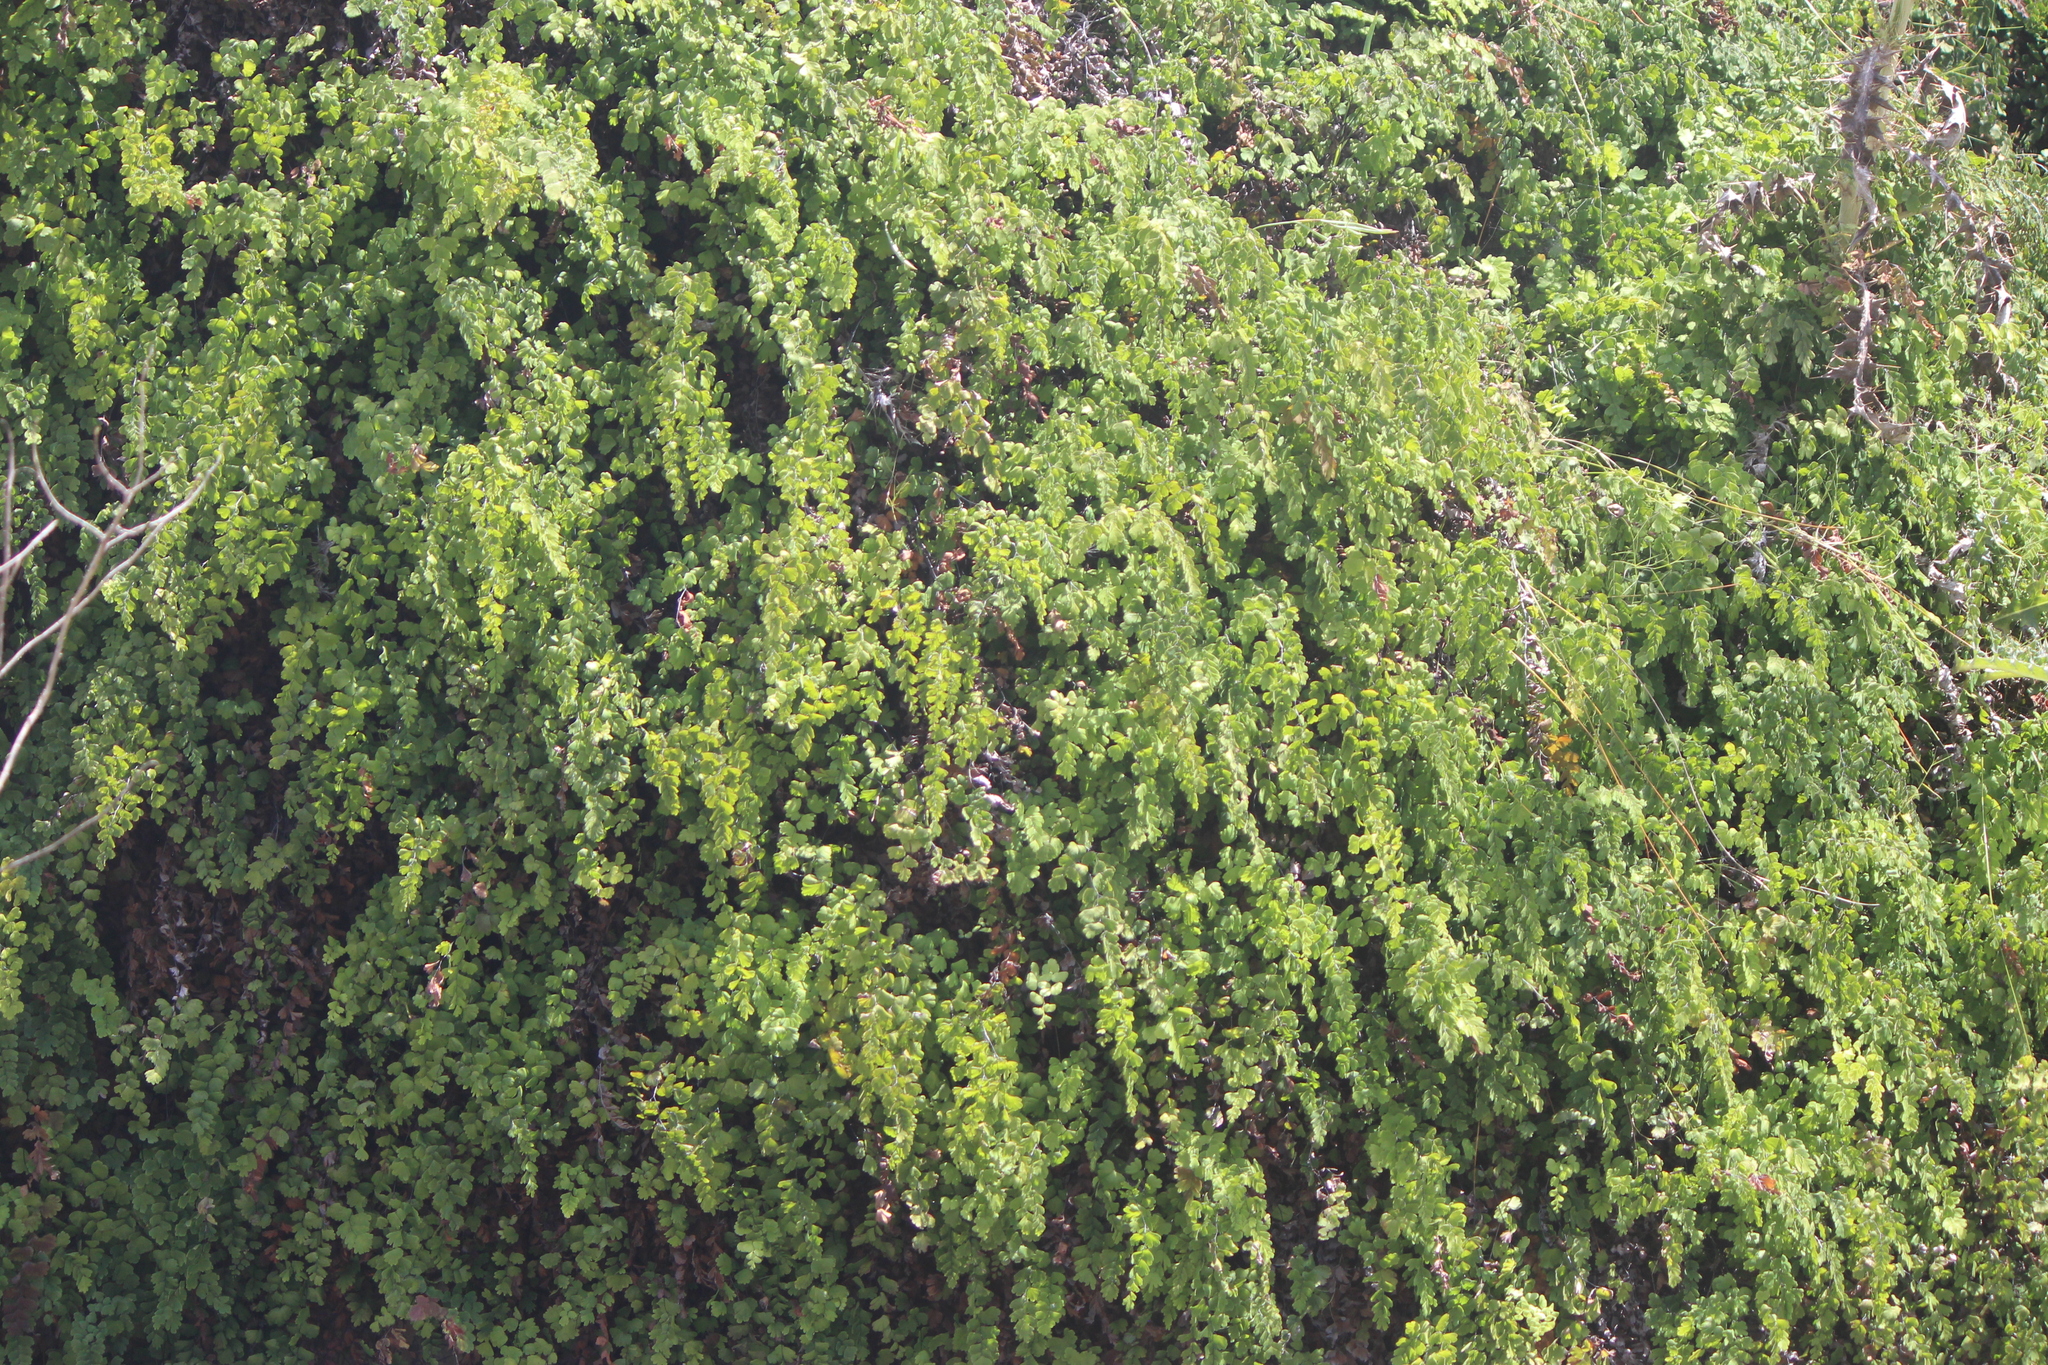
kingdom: Plantae
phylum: Tracheophyta
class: Polypodiopsida
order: Polypodiales
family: Pteridaceae
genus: Adiantum
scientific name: Adiantum capillus-veneris
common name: Maidenhair fern
